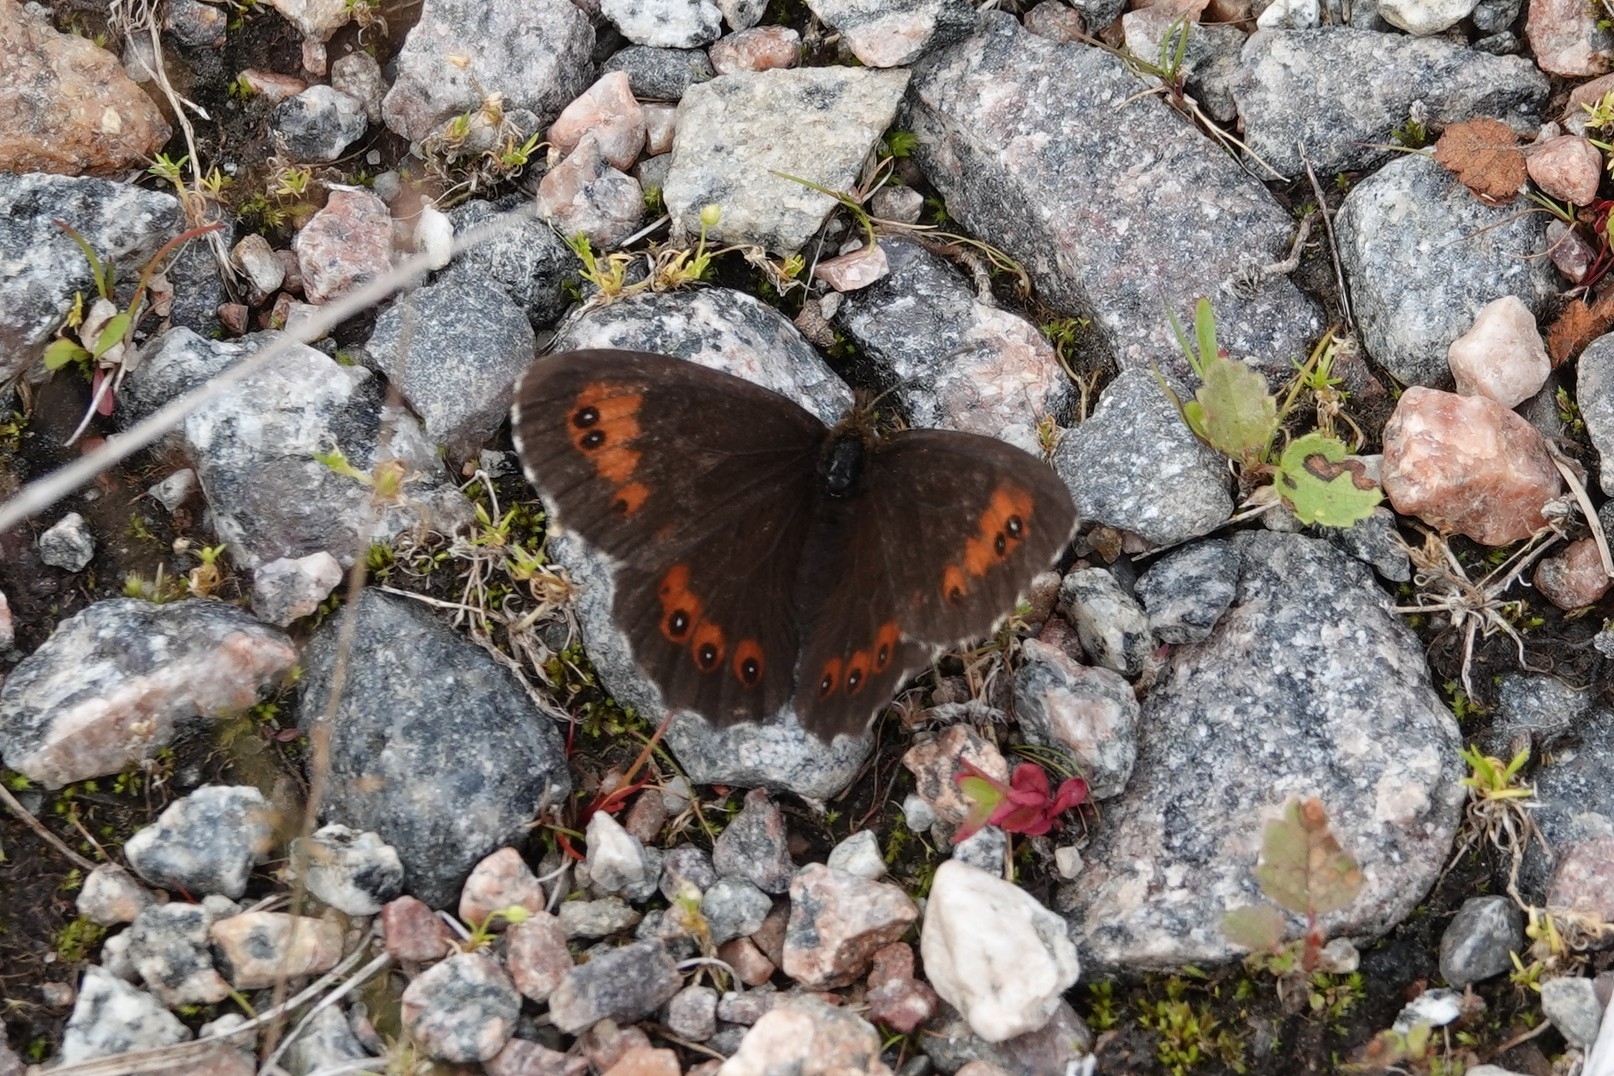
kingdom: Animalia
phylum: Arthropoda
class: Insecta
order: Lepidoptera
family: Nymphalidae
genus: Erebia
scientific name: Erebia ligea
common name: Arran brown
